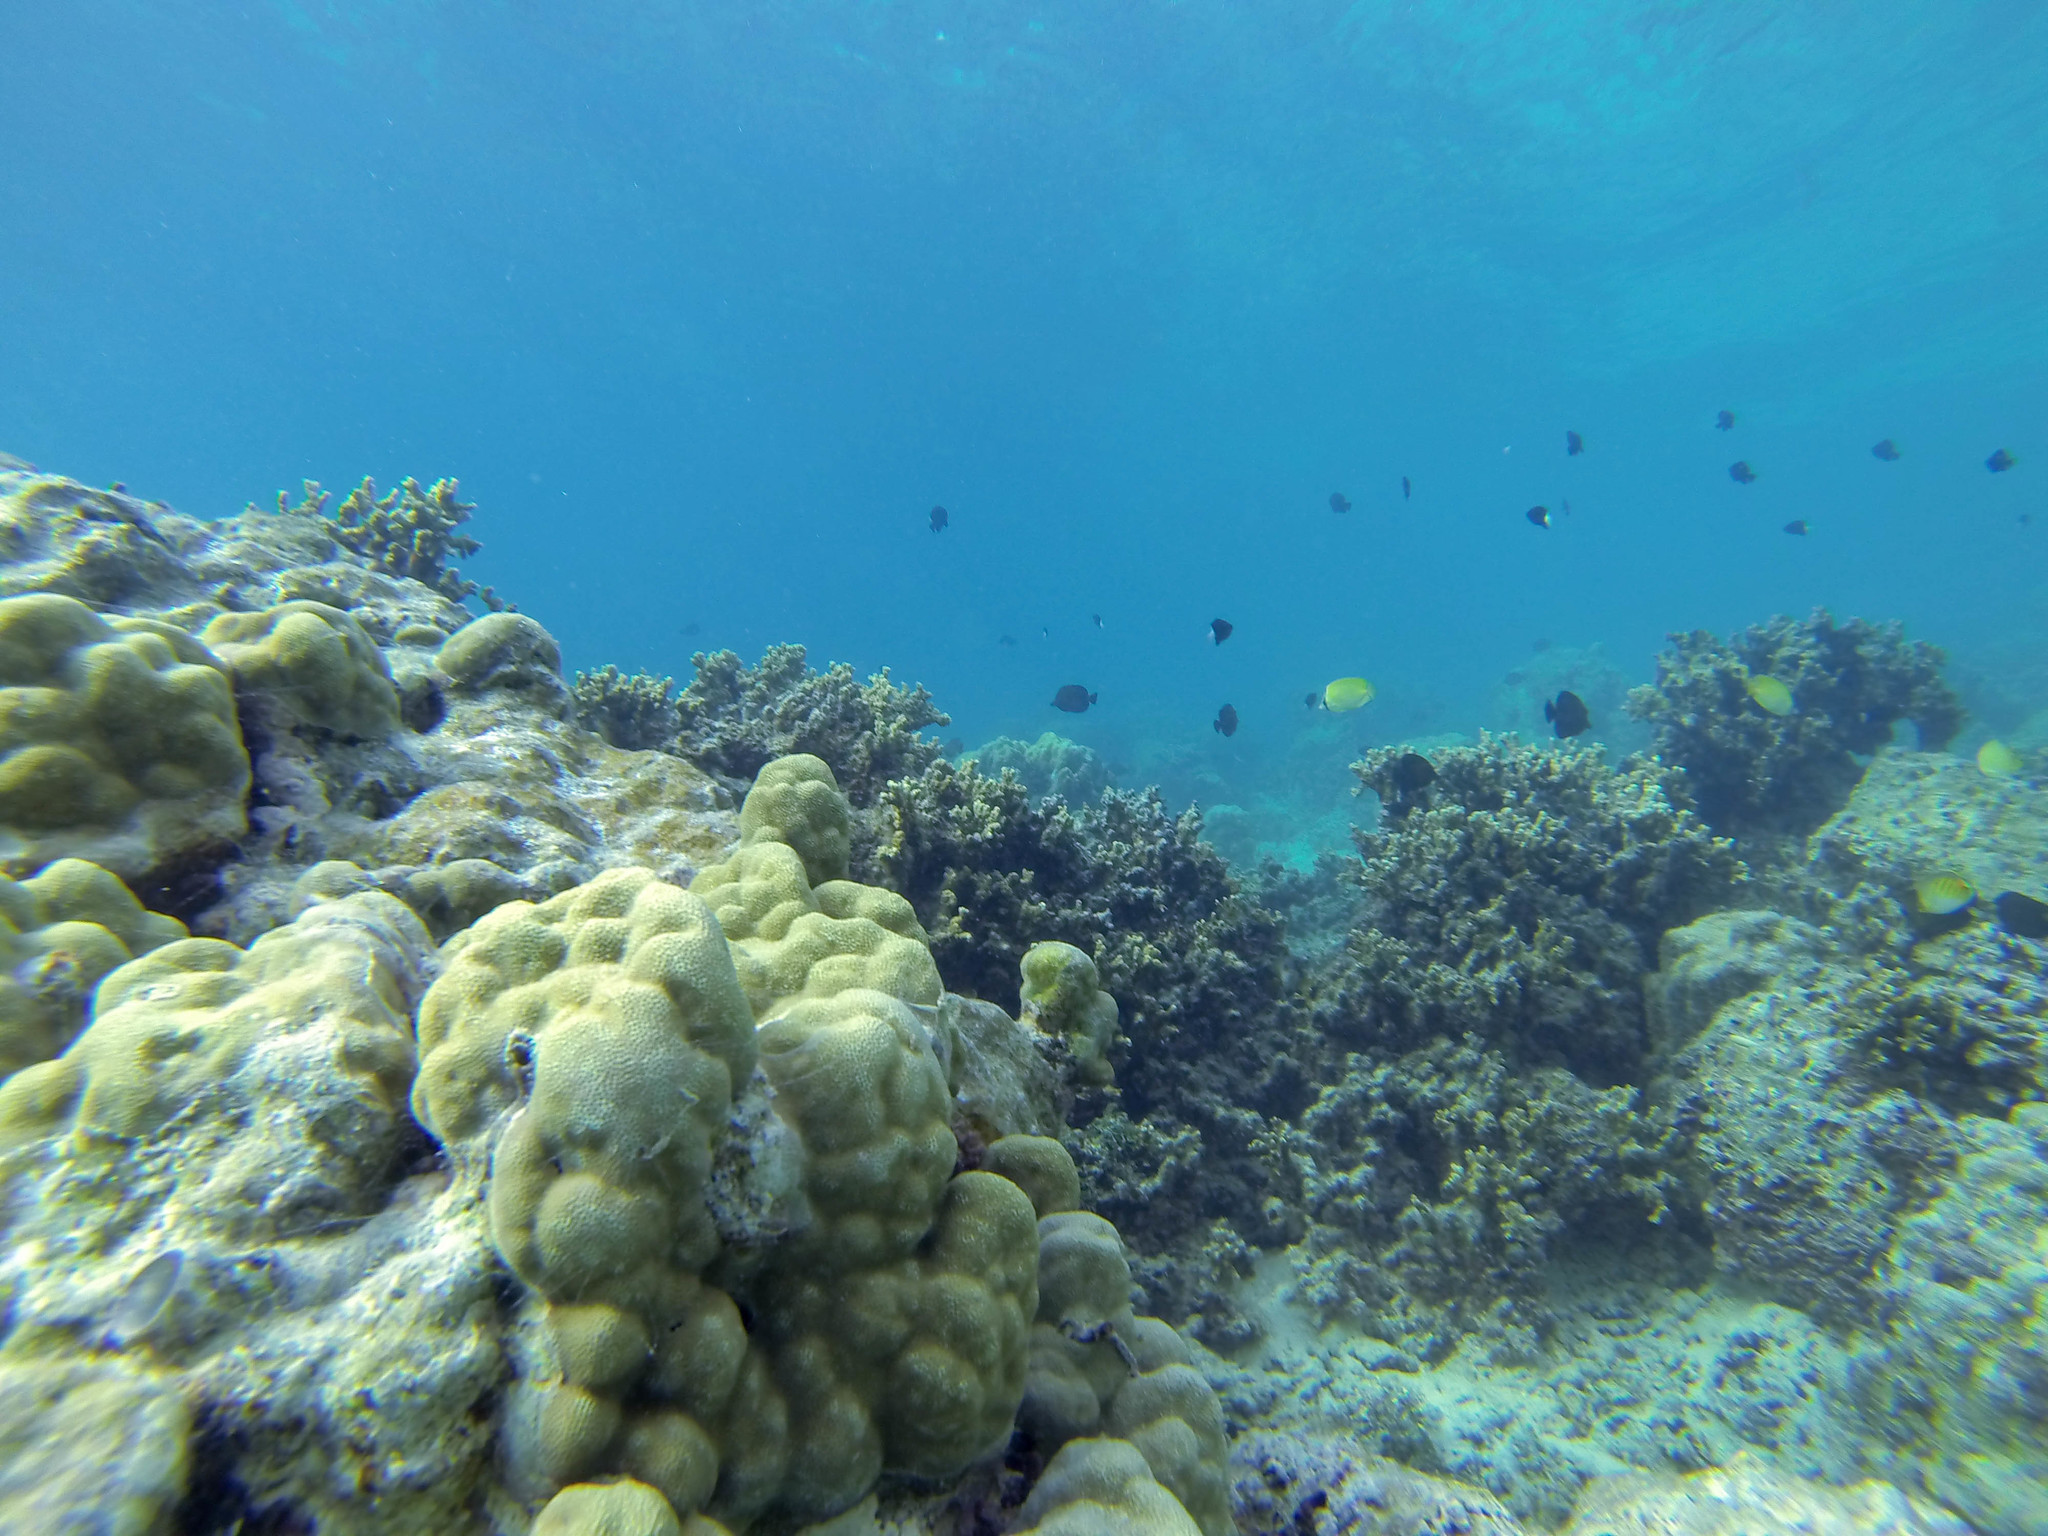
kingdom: Animalia
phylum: Chordata
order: Perciformes
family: Chaetodontidae
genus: Chaetodon
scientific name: Chaetodon citrinellus
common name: Speckled butterflyfish
